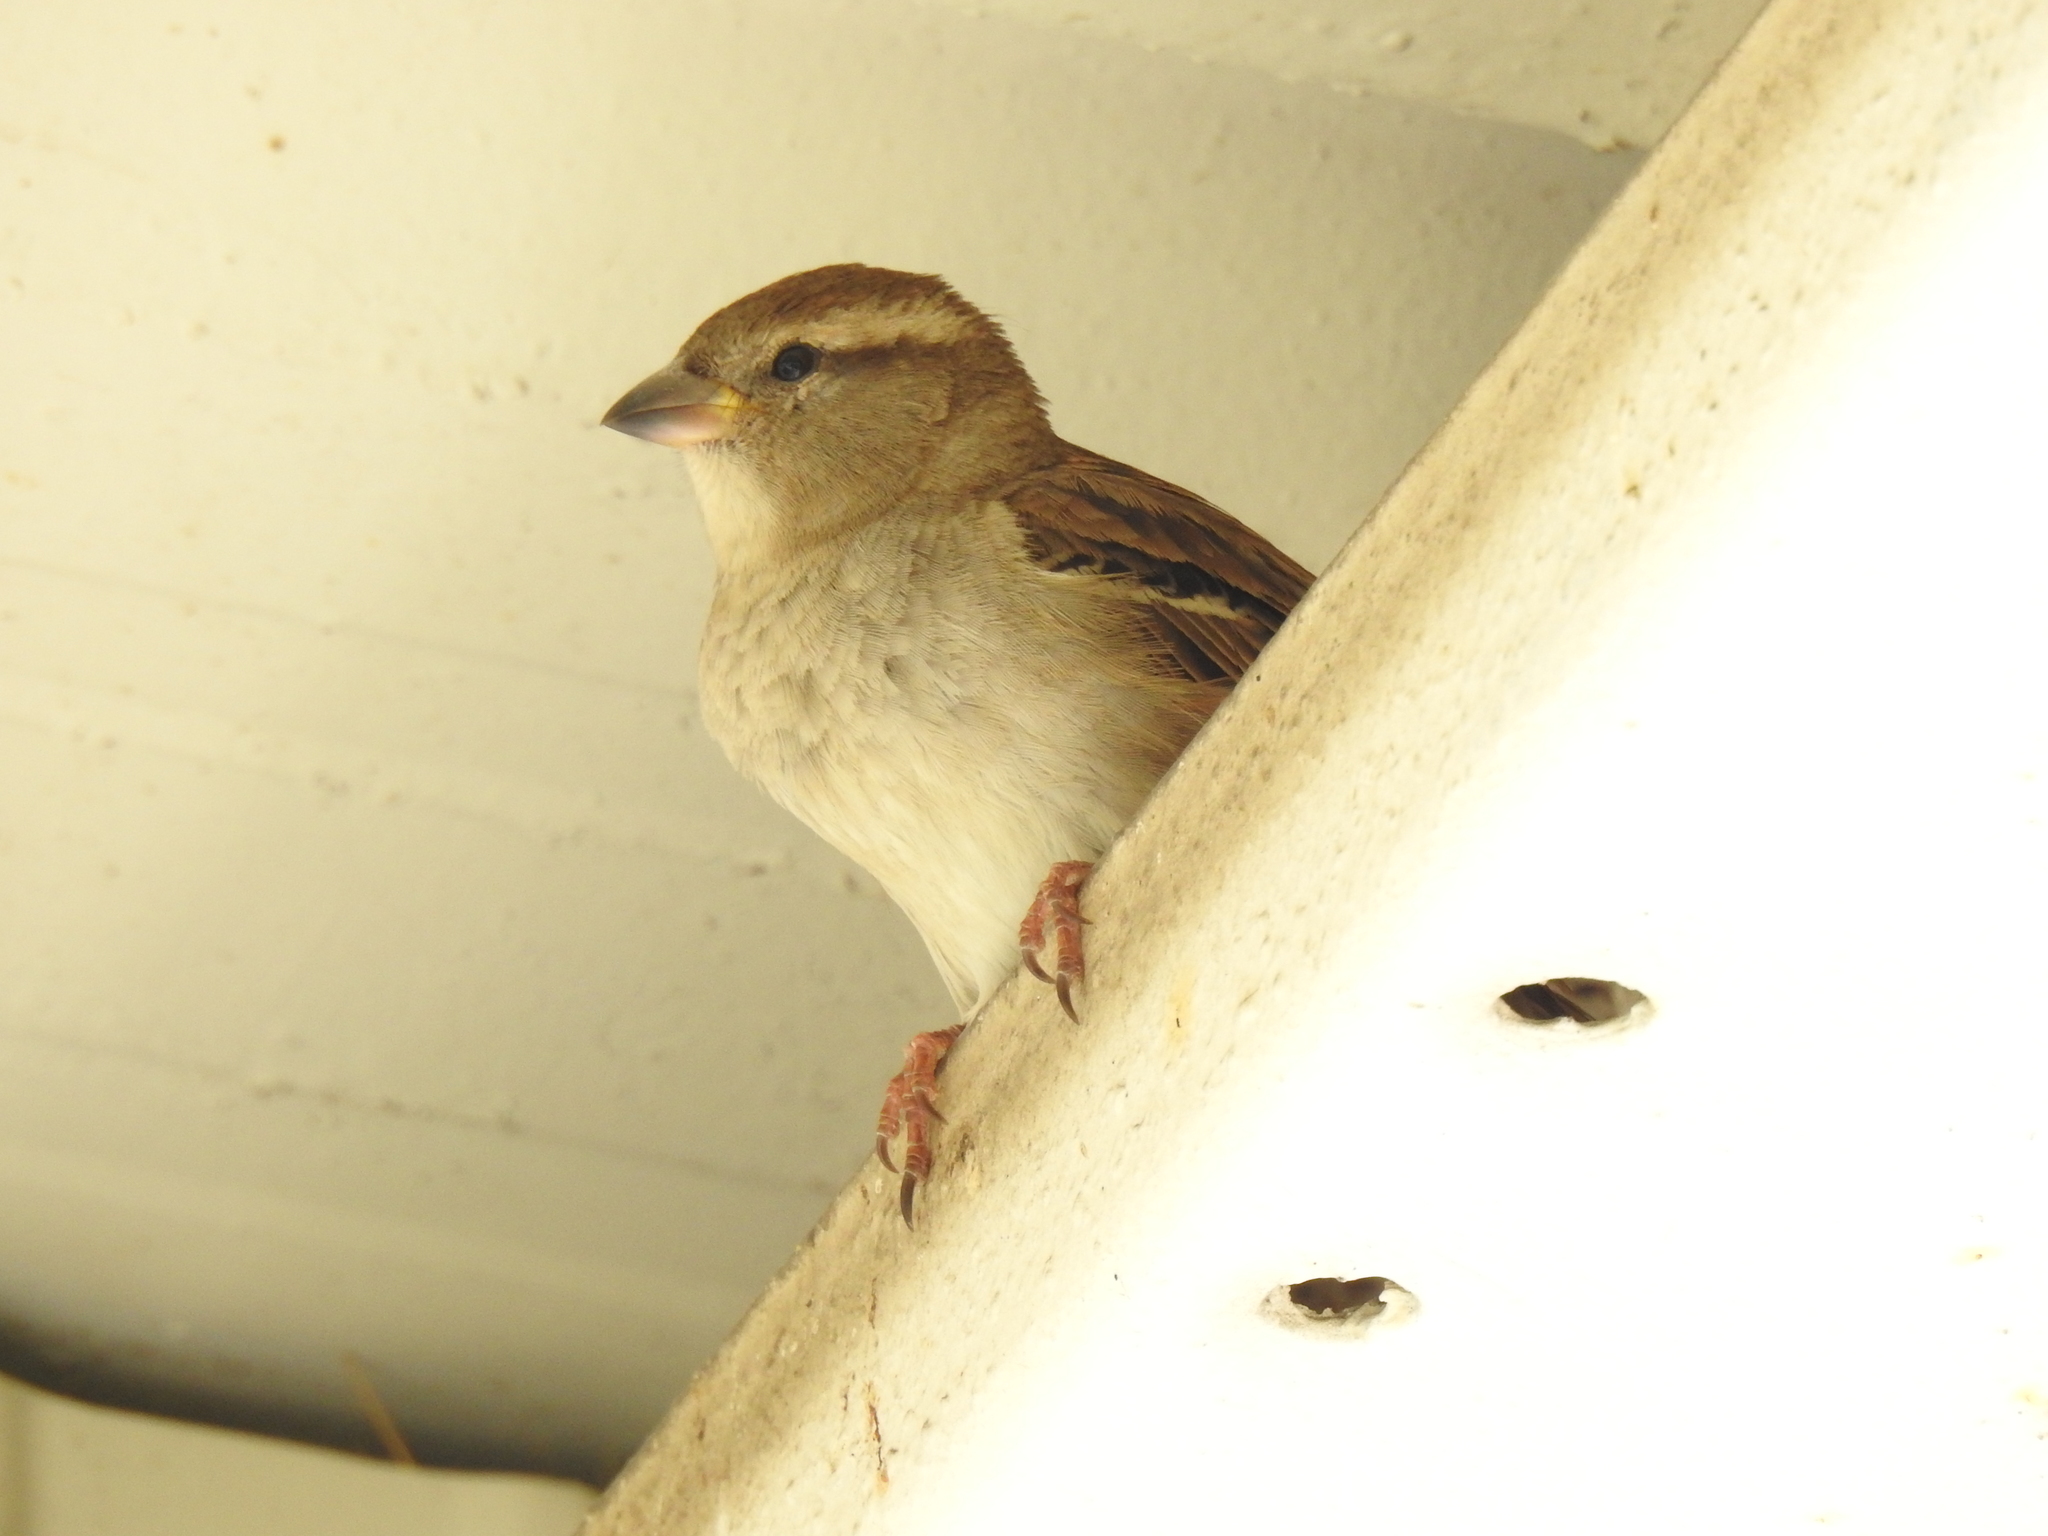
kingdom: Animalia
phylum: Chordata
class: Aves
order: Passeriformes
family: Passeridae
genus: Passer
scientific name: Passer domesticus
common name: House sparrow
